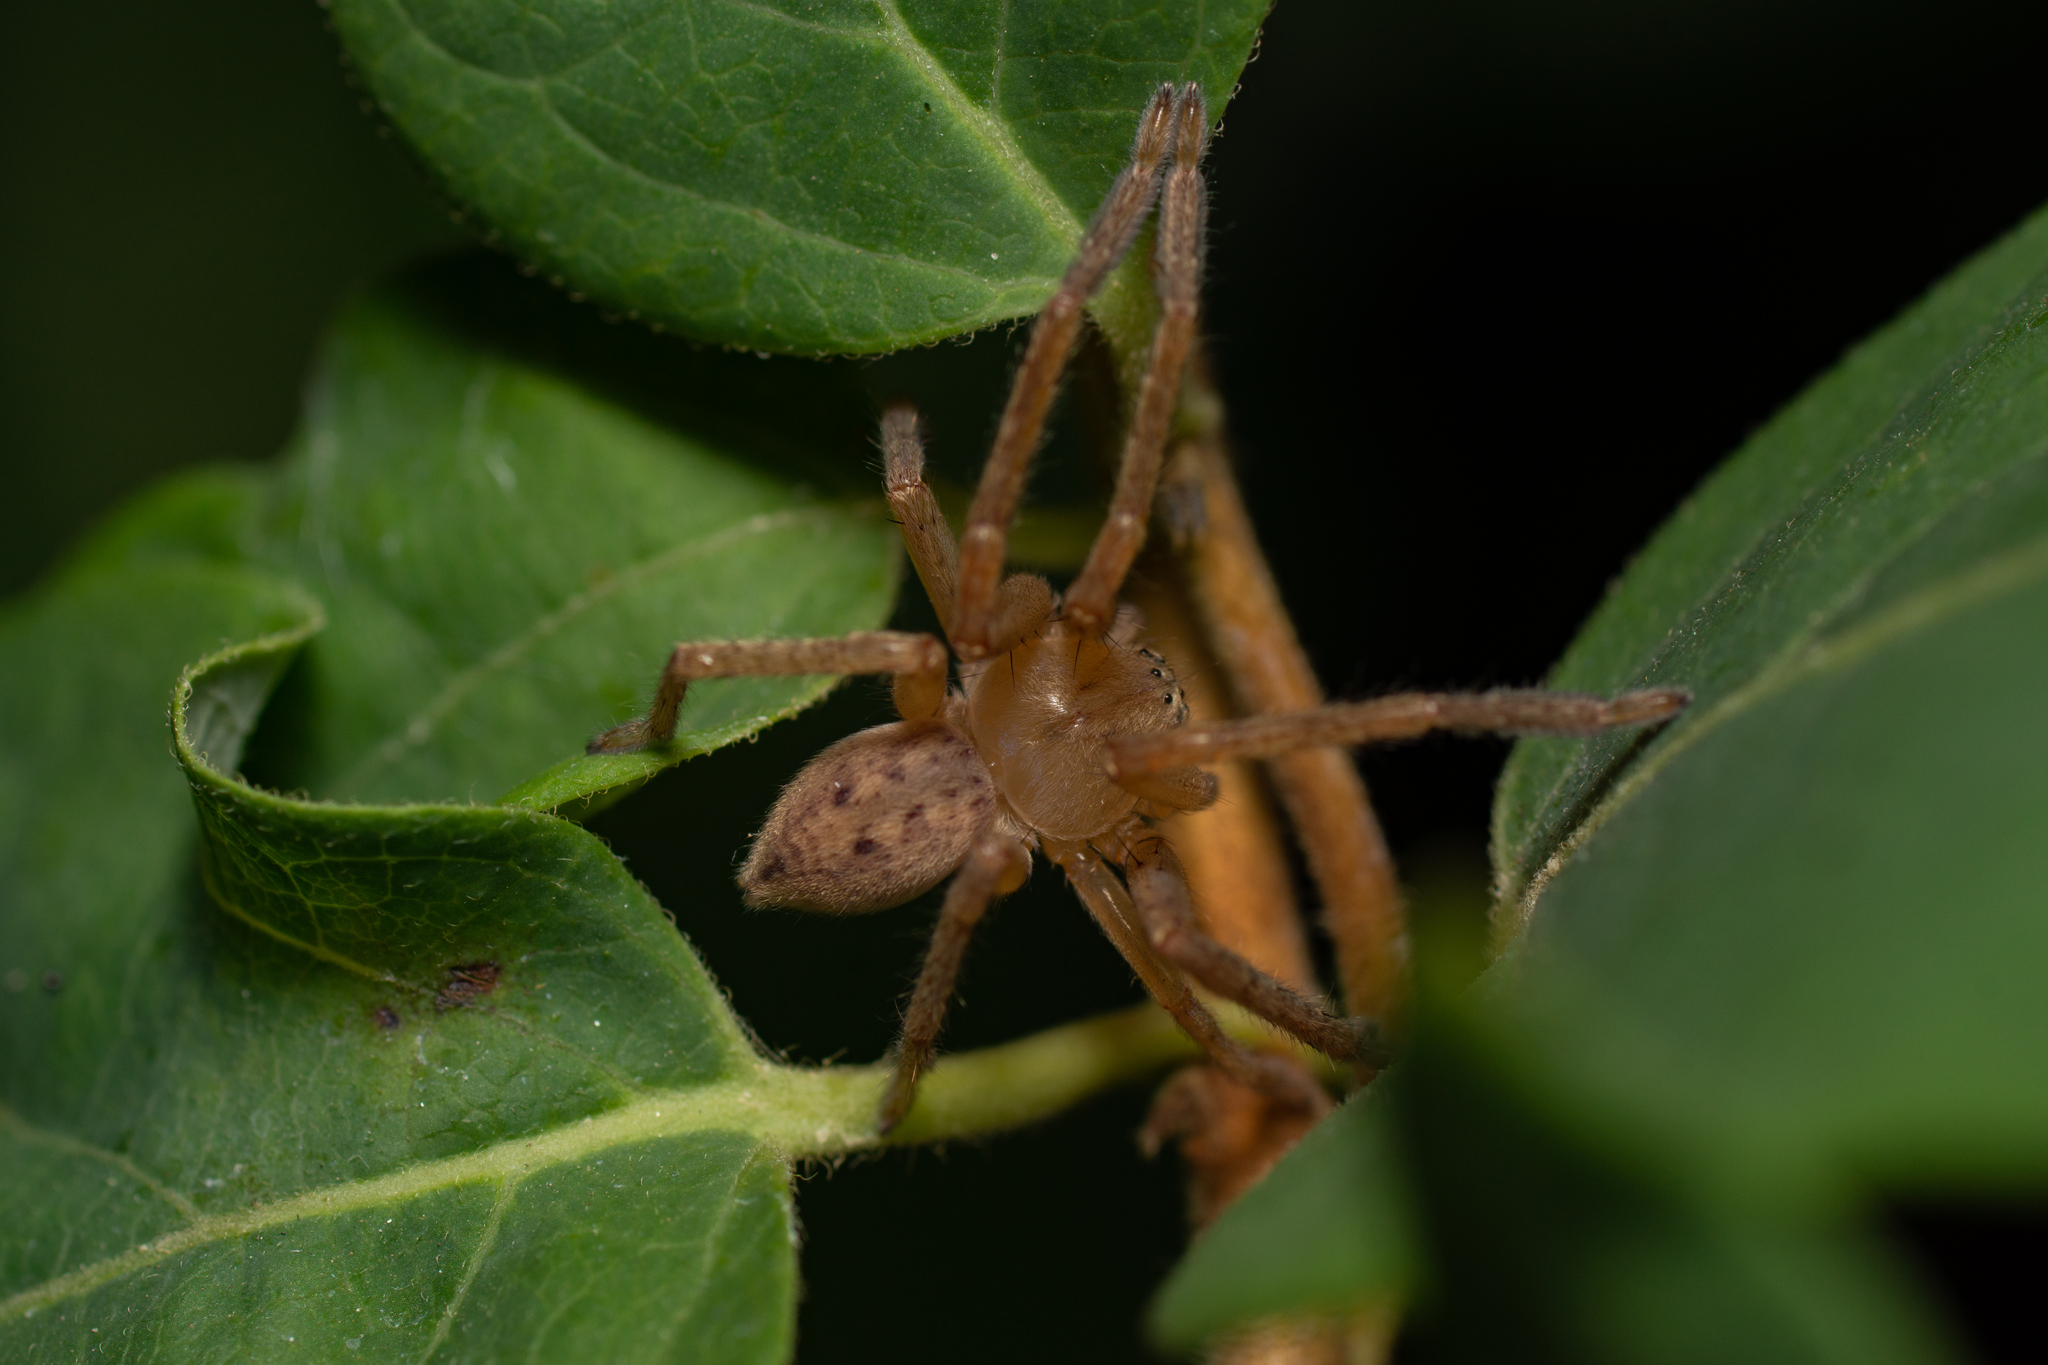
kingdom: Animalia
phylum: Arthropoda
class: Arachnida
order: Araneae
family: Sparassidae
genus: Olios
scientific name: Olios argelasius
